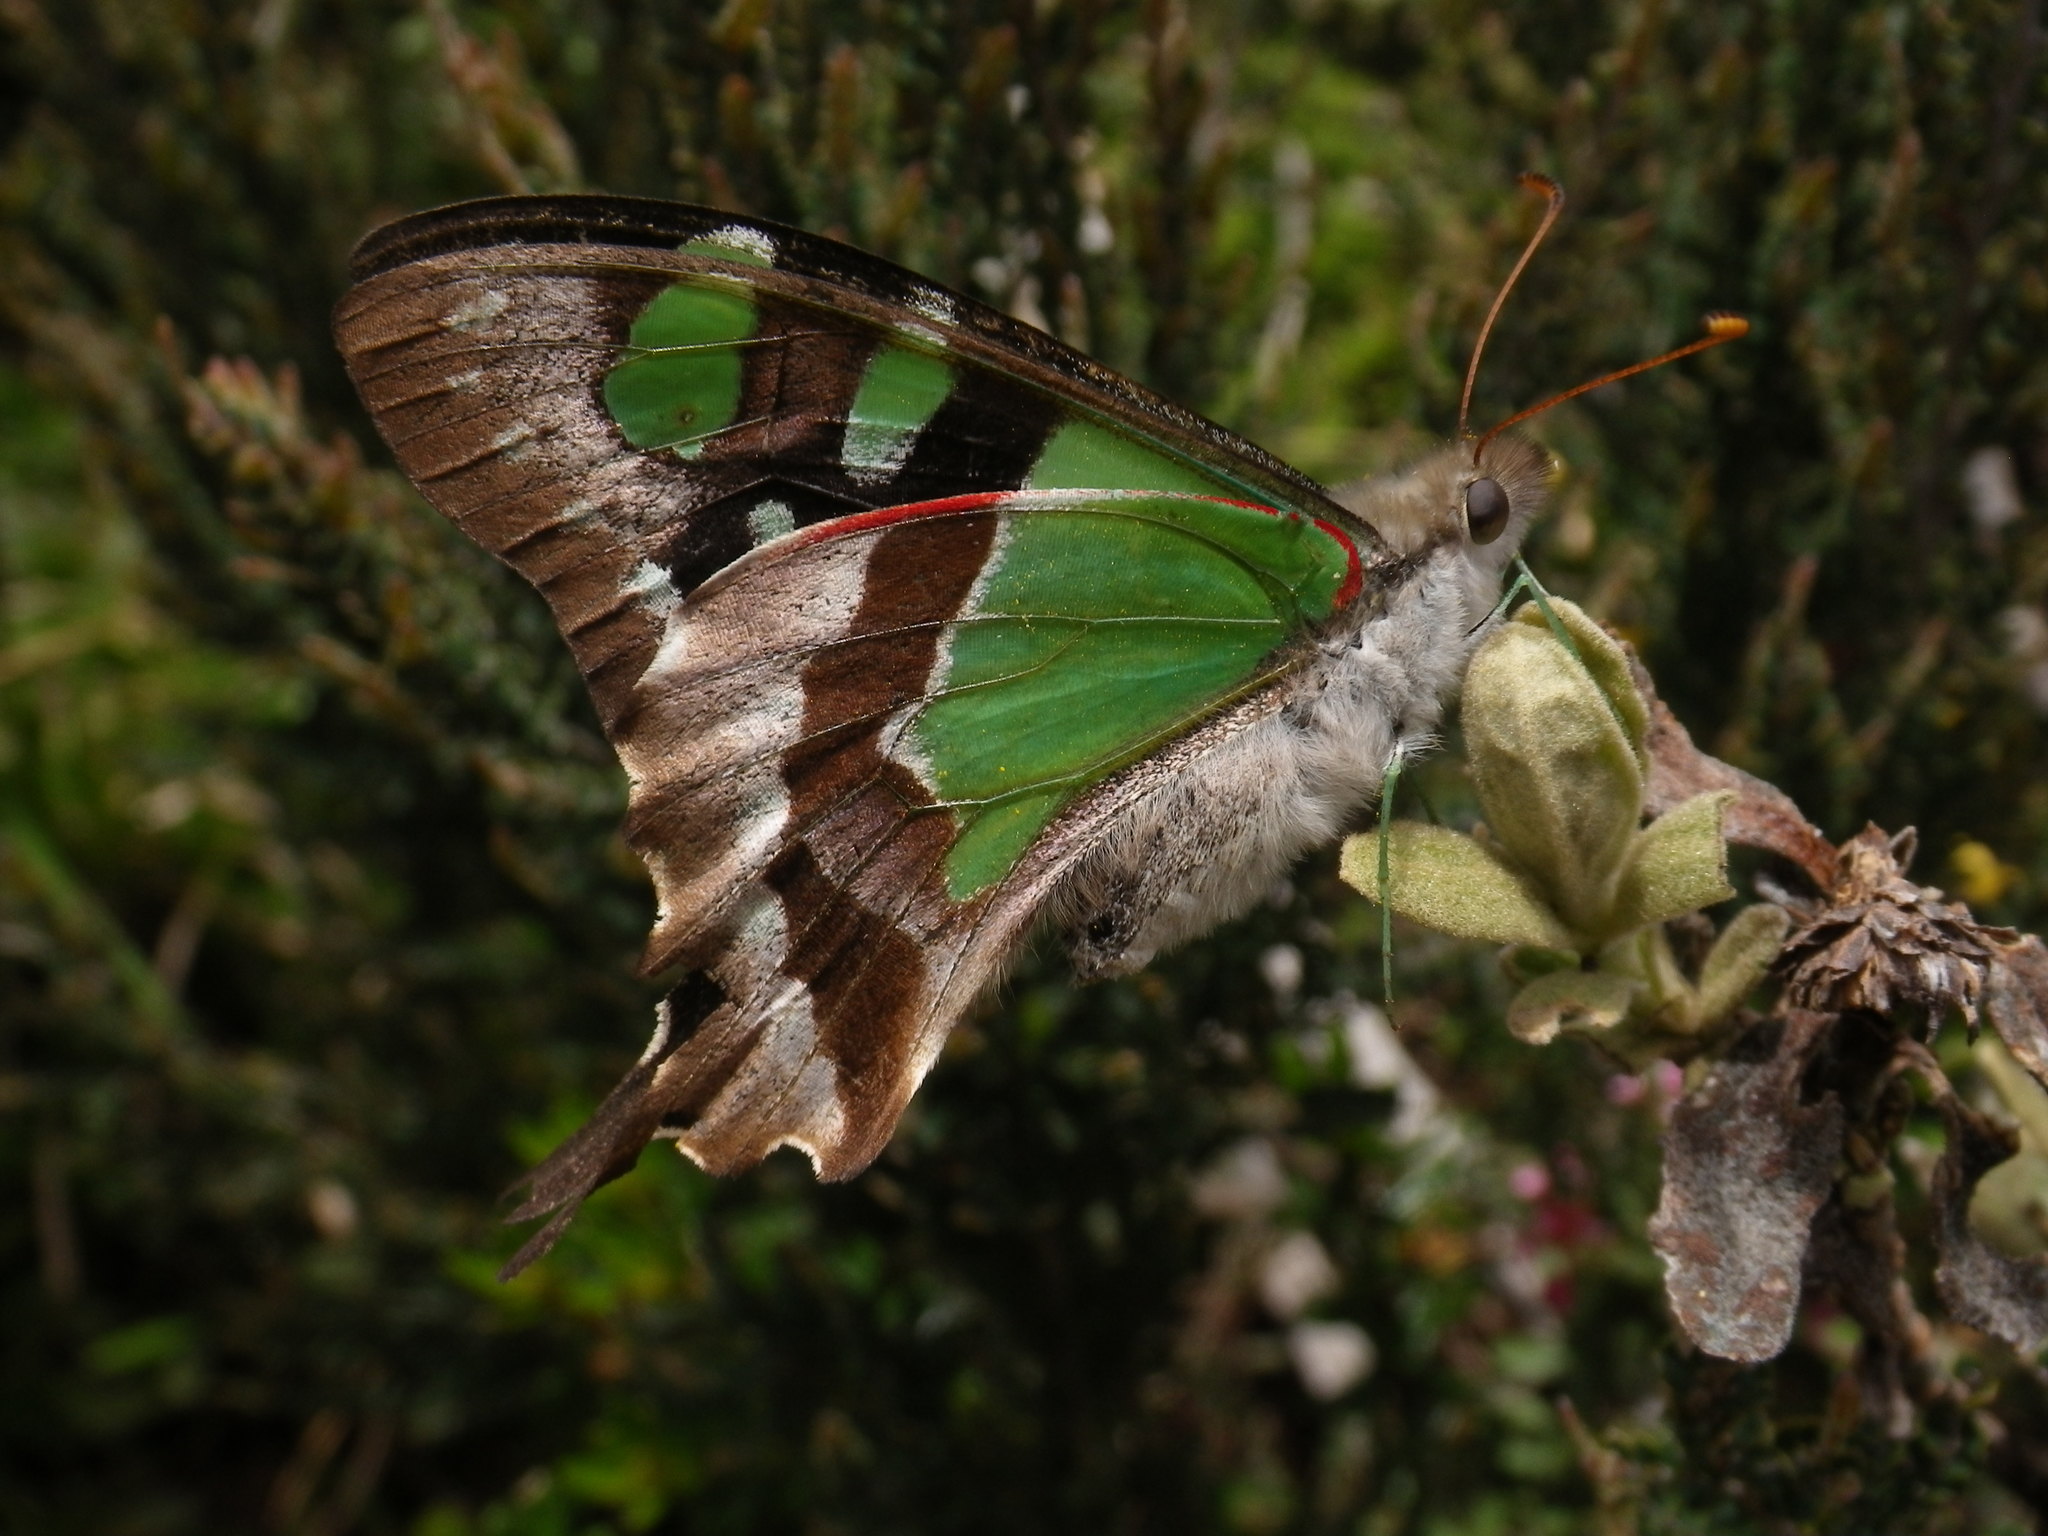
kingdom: Animalia
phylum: Arthropoda
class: Insecta
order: Lepidoptera
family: Papilionidae
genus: Graphium
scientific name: Graphium macleayanus
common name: Macleay's swallowtail
